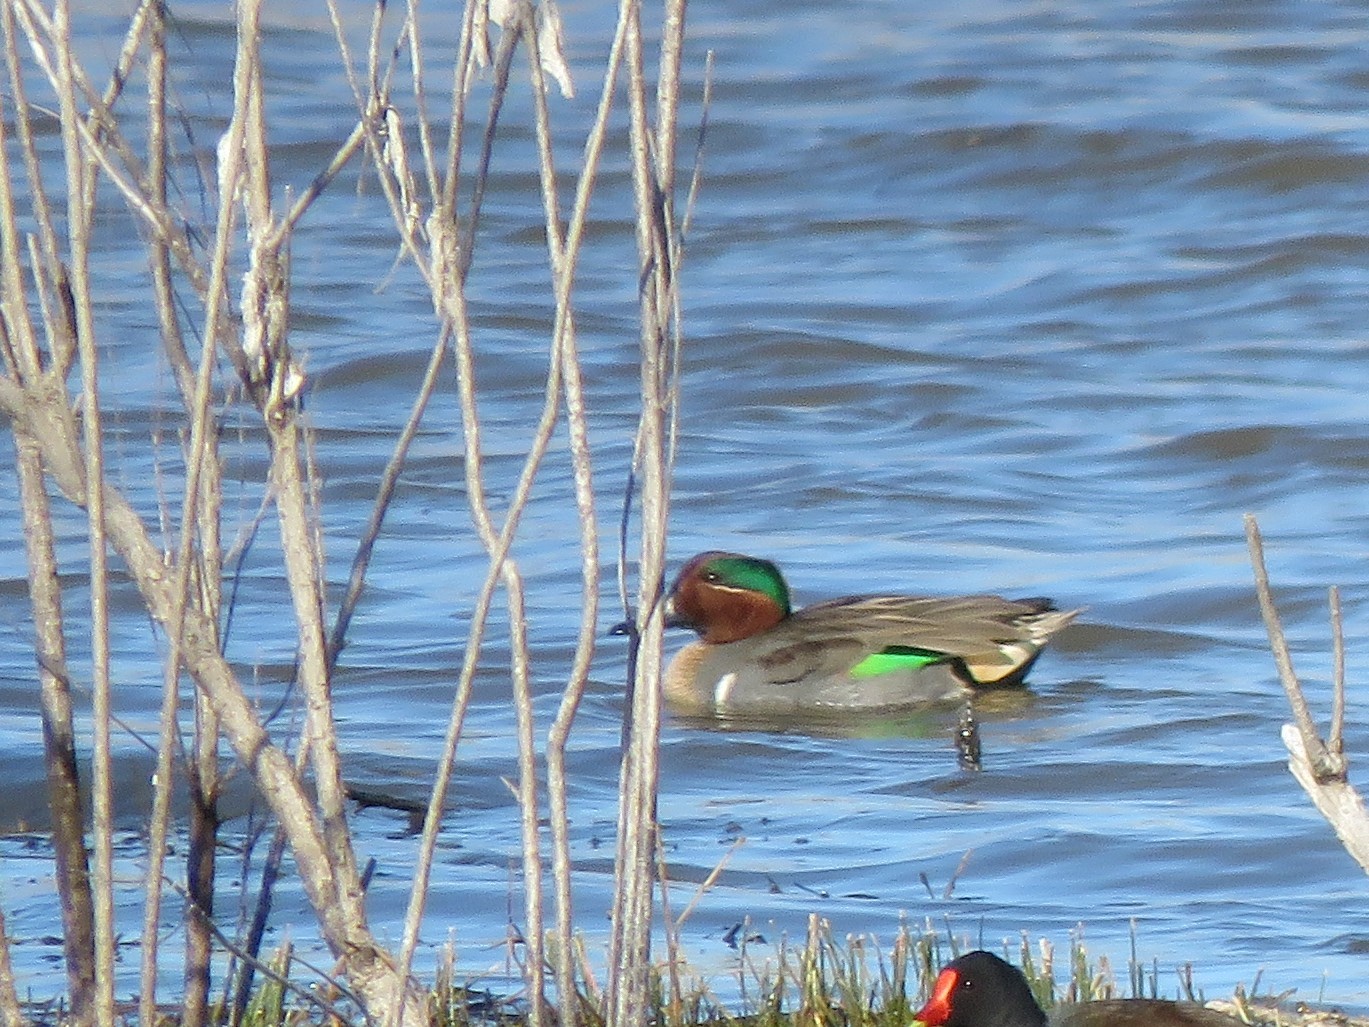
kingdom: Animalia
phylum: Chordata
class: Aves
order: Anseriformes
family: Anatidae
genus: Anas
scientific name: Anas crecca
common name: Eurasian teal
